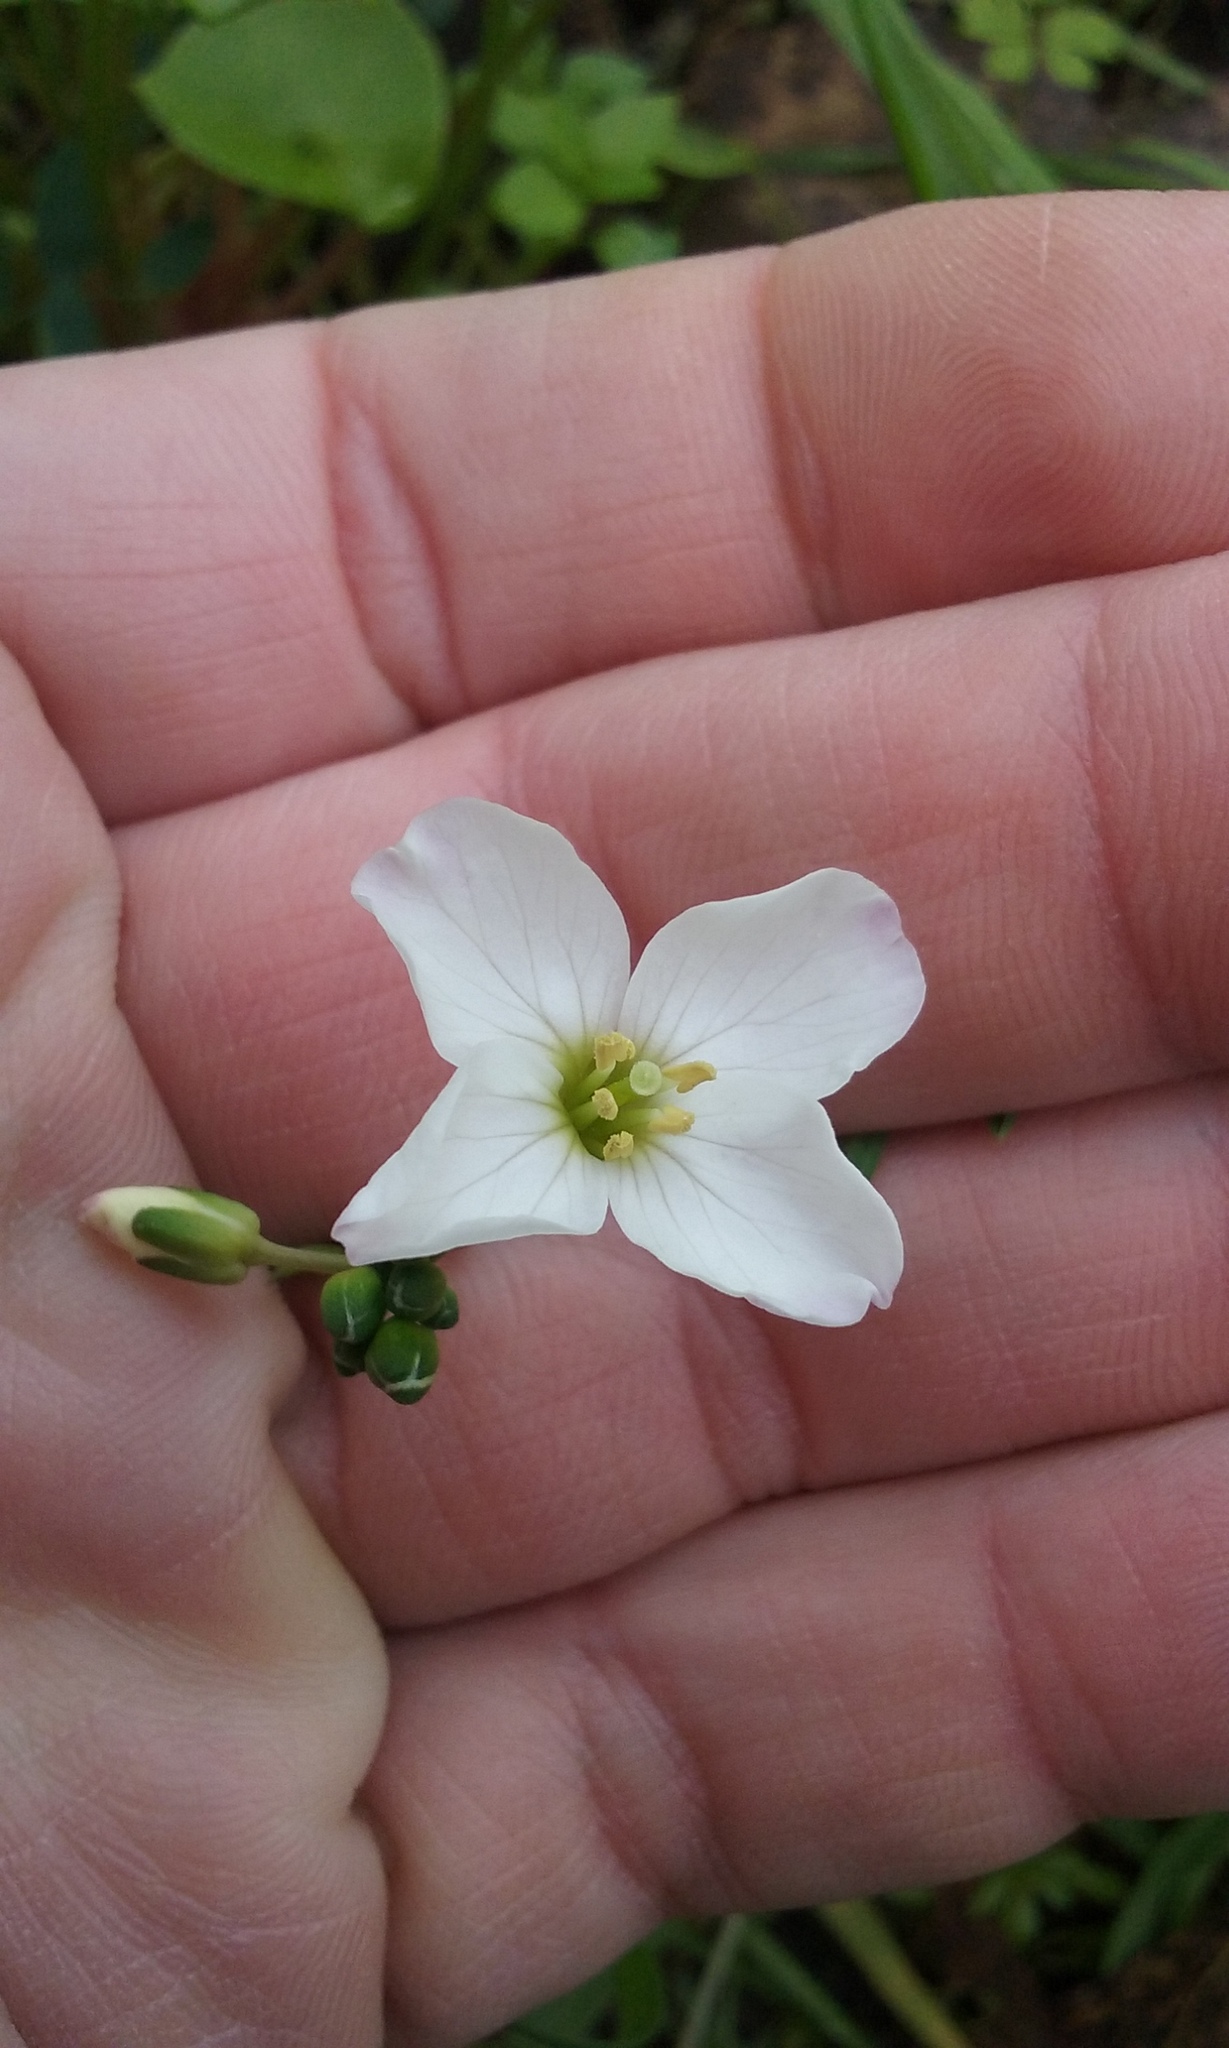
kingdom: Plantae
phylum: Tracheophyta
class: Magnoliopsida
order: Brassicales
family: Brassicaceae
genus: Cardamine
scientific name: Cardamine californica
